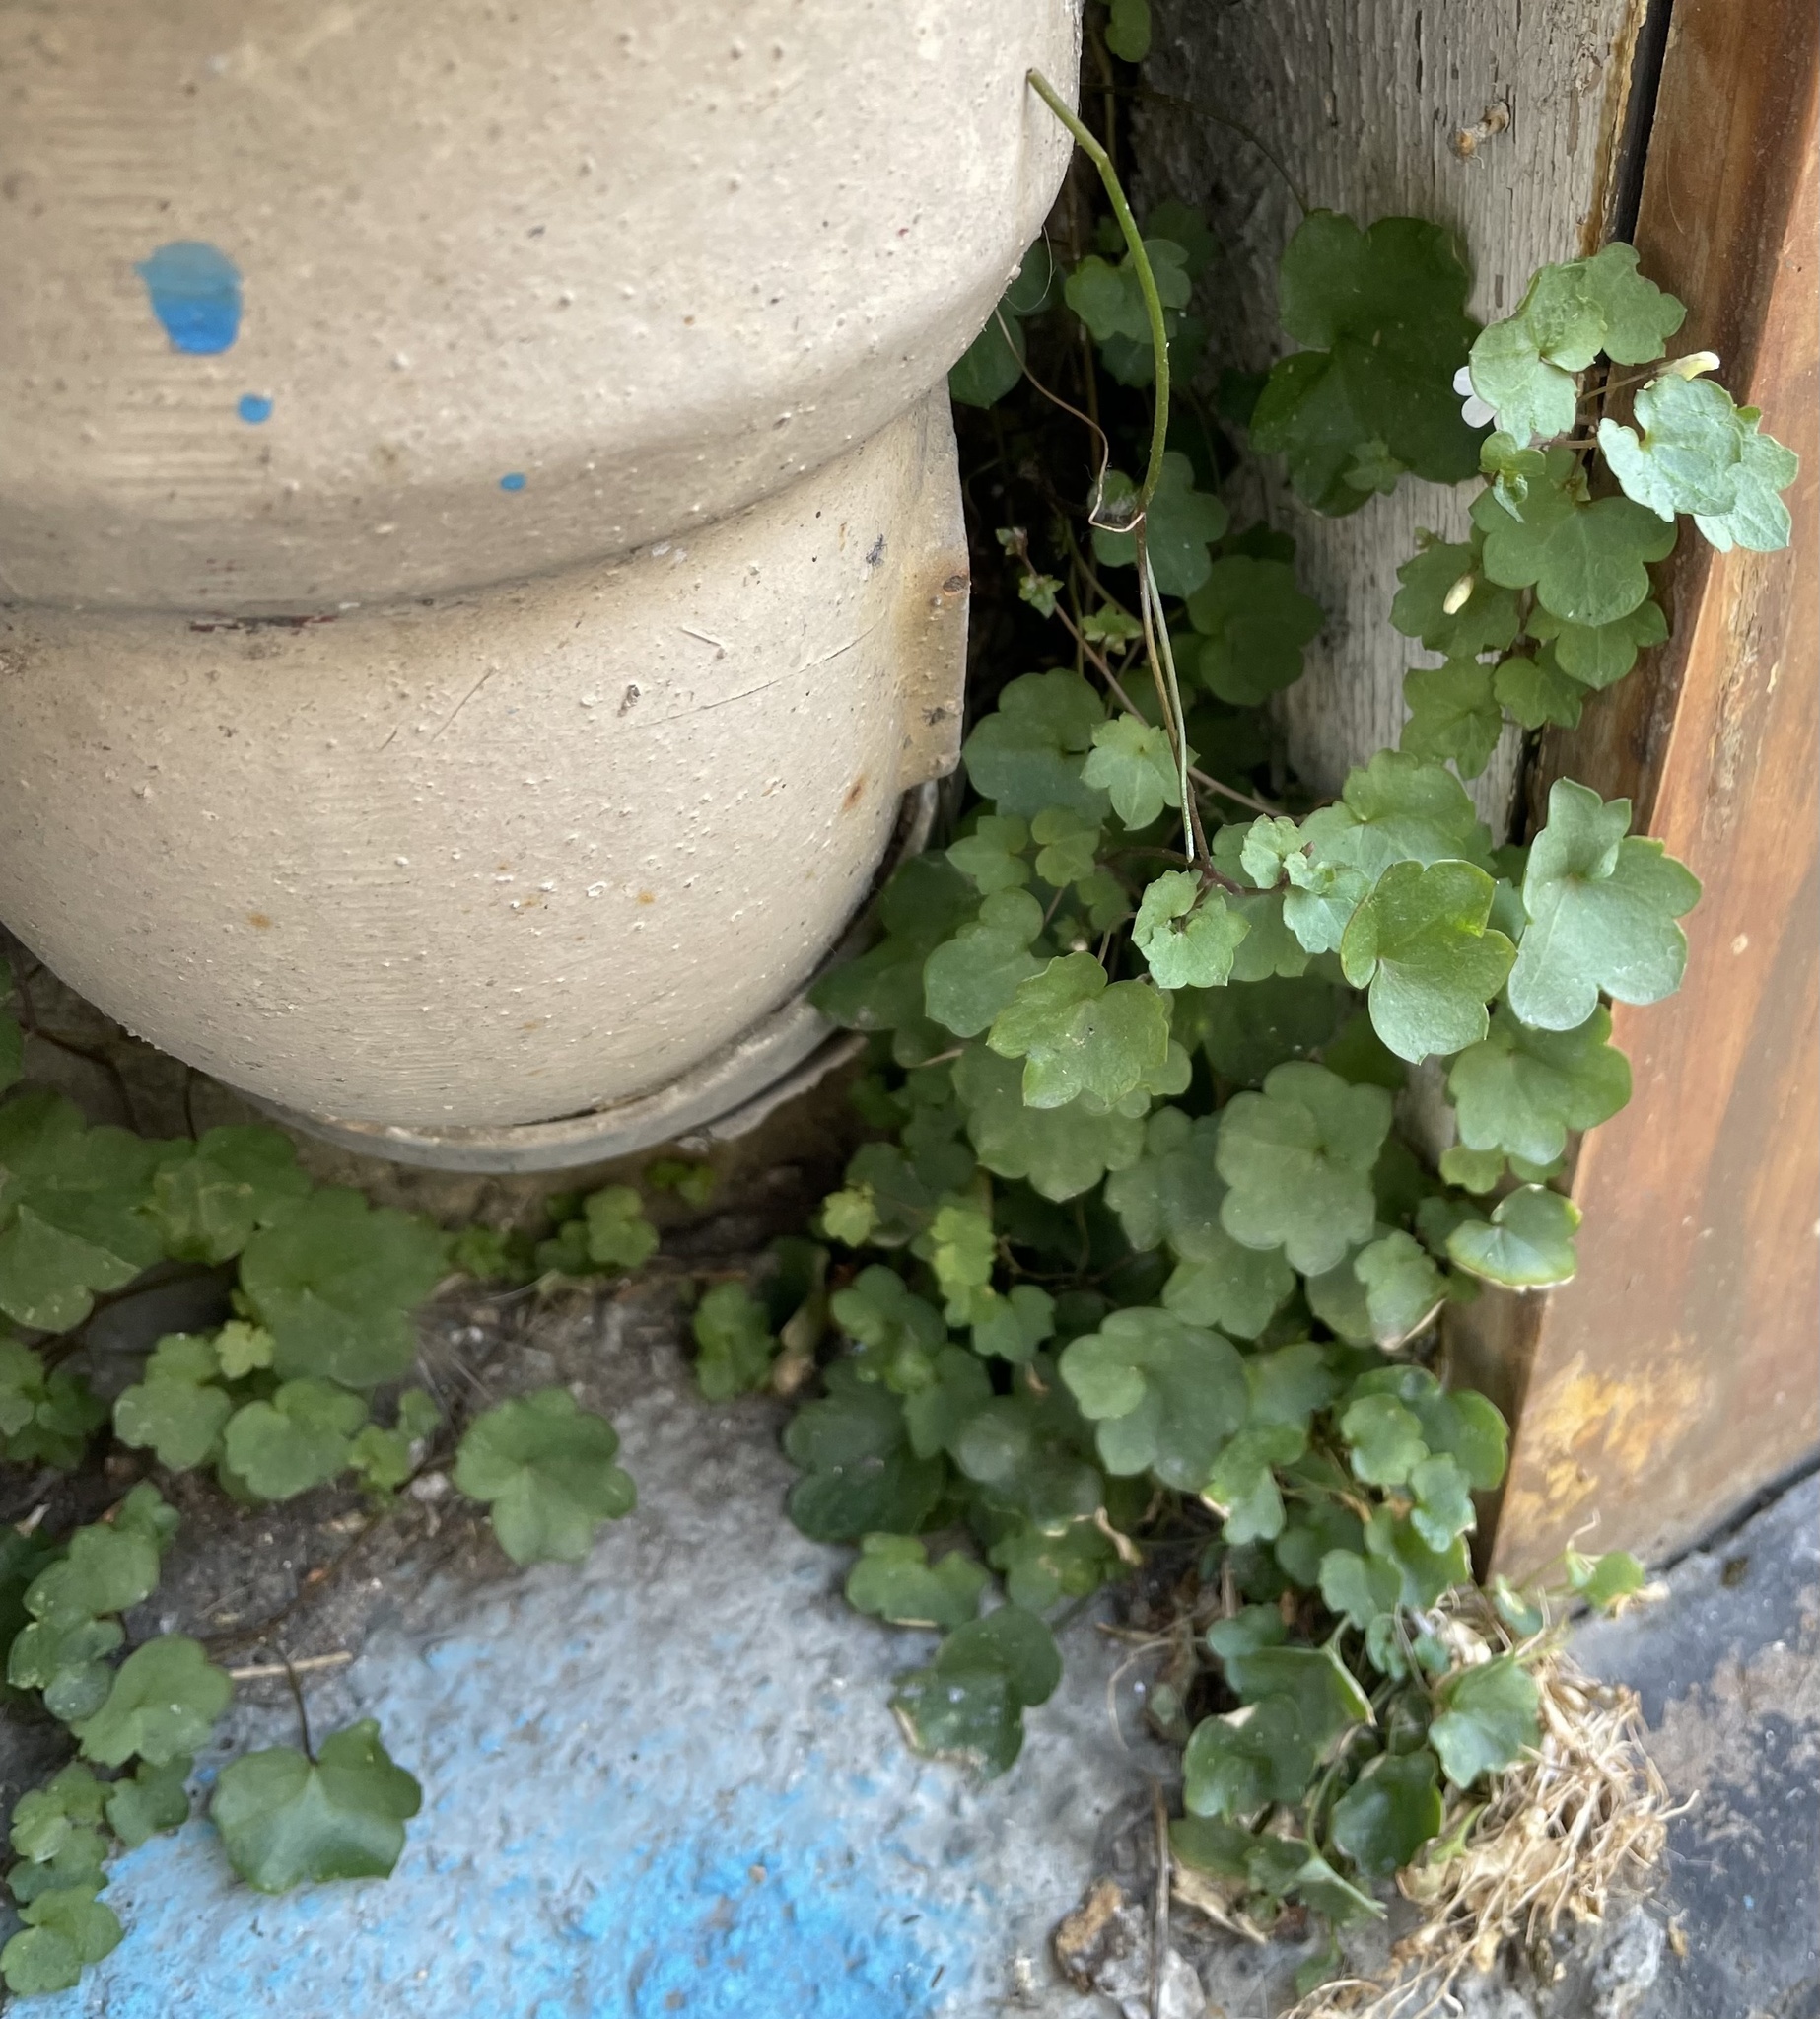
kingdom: Plantae
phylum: Tracheophyta
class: Magnoliopsida
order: Lamiales
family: Plantaginaceae
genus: Cymbalaria
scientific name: Cymbalaria muralis
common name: Ivy-leaved toadflax
